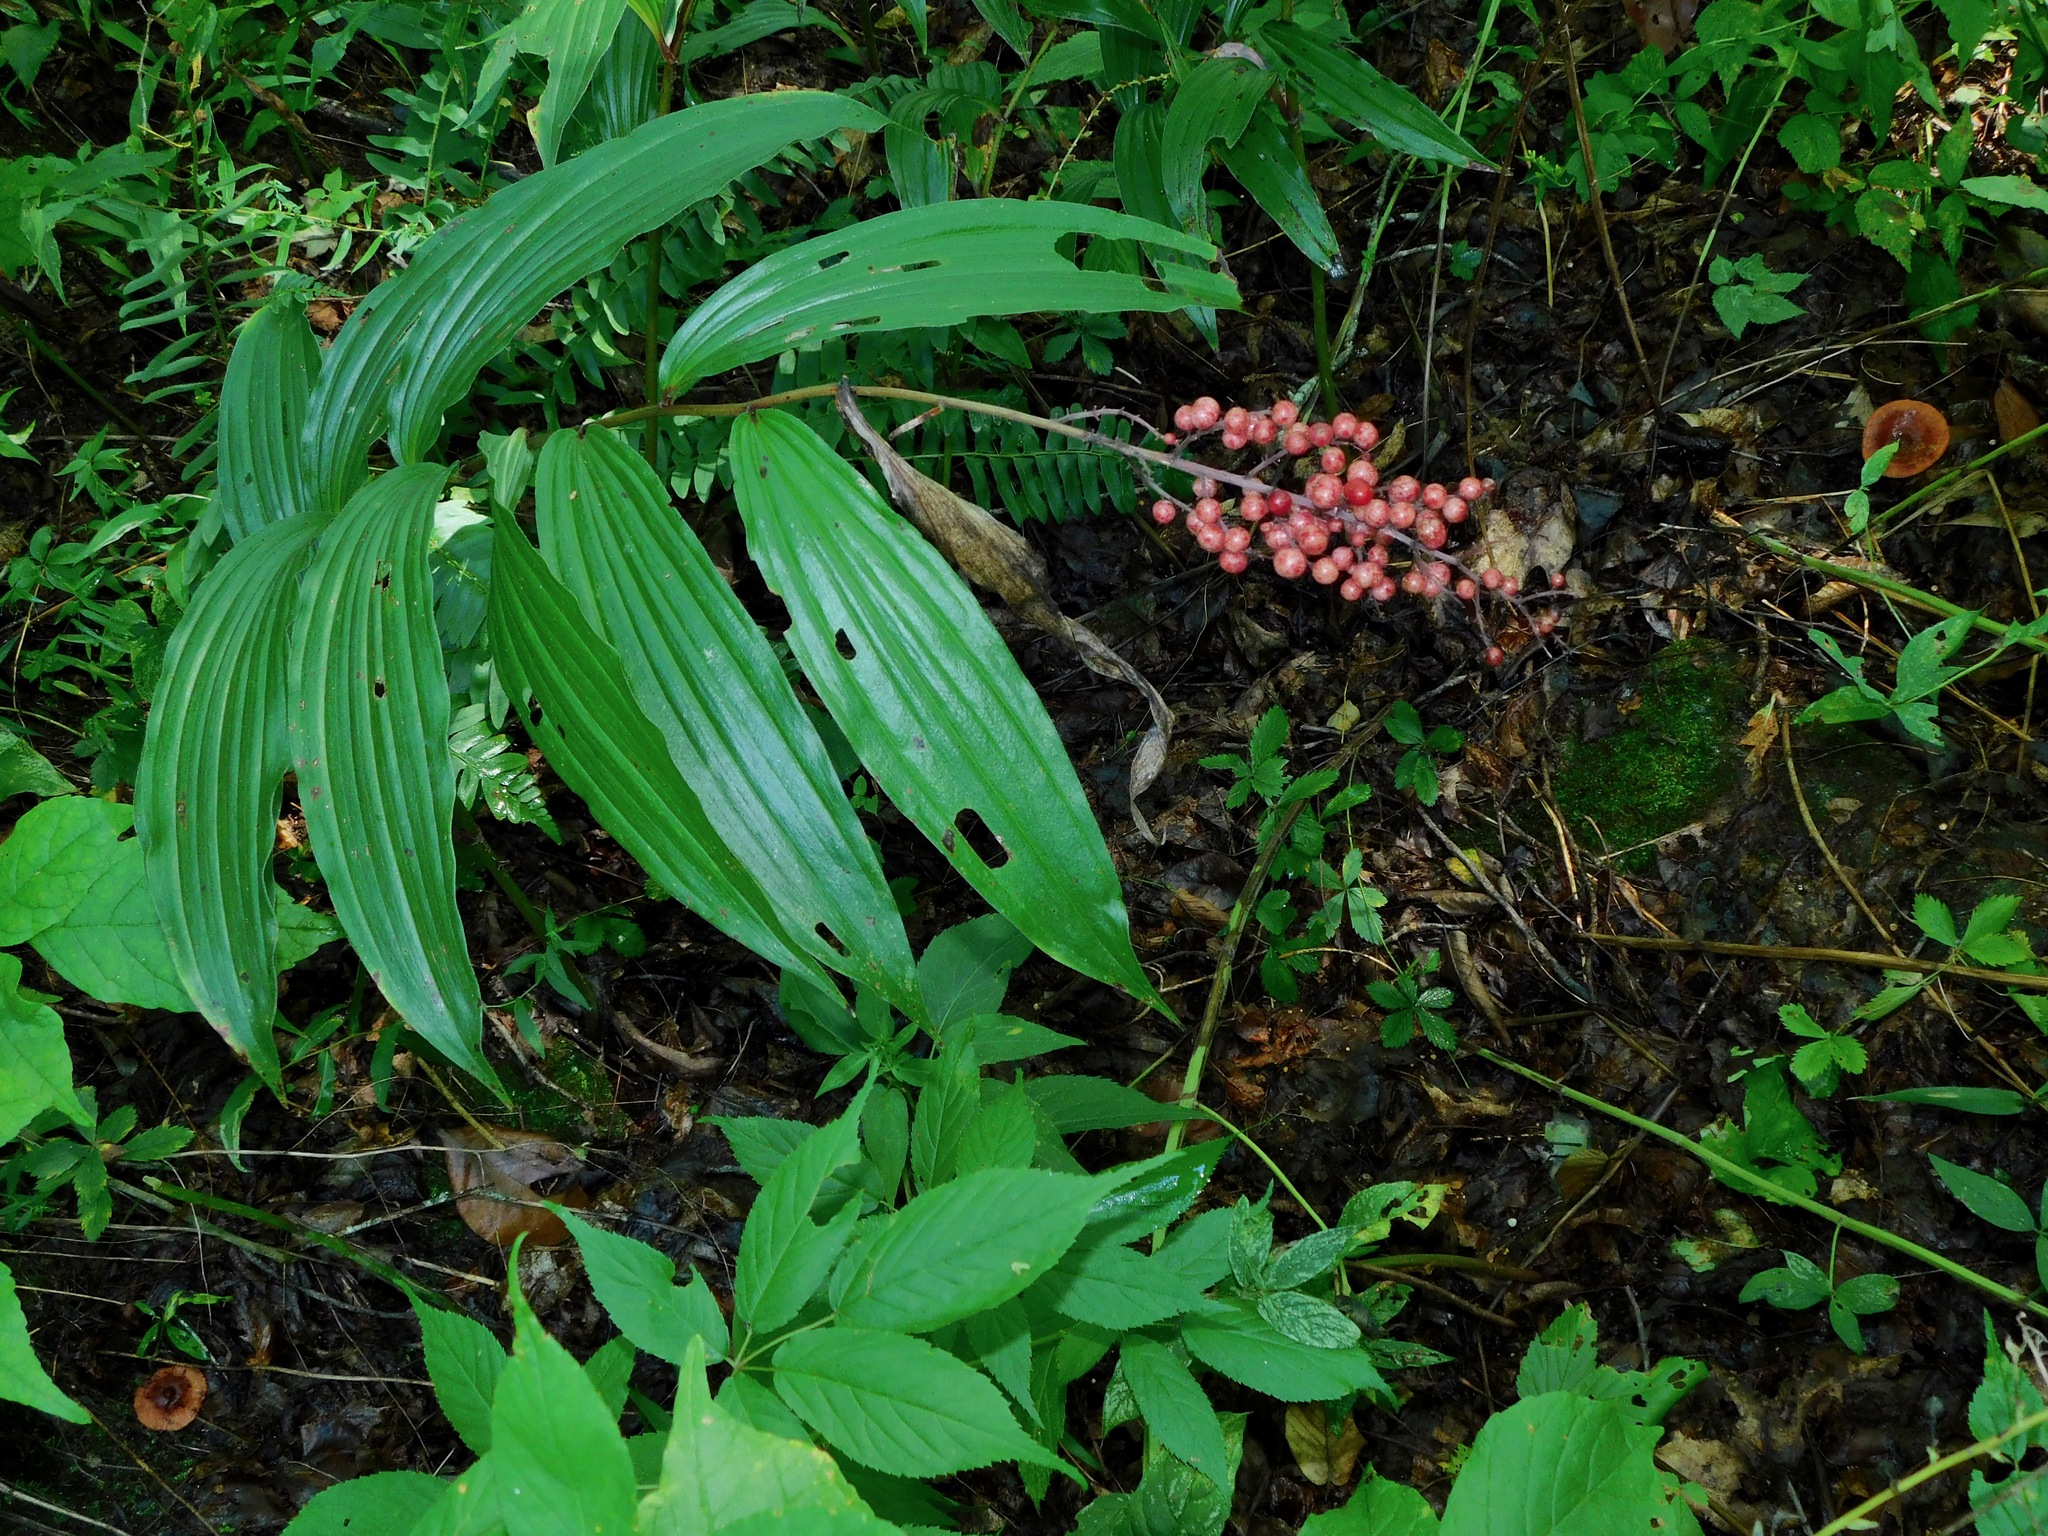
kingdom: Plantae
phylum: Tracheophyta
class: Liliopsida
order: Asparagales
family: Asparagaceae
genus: Maianthemum
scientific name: Maianthemum racemosum
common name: False spikenard
